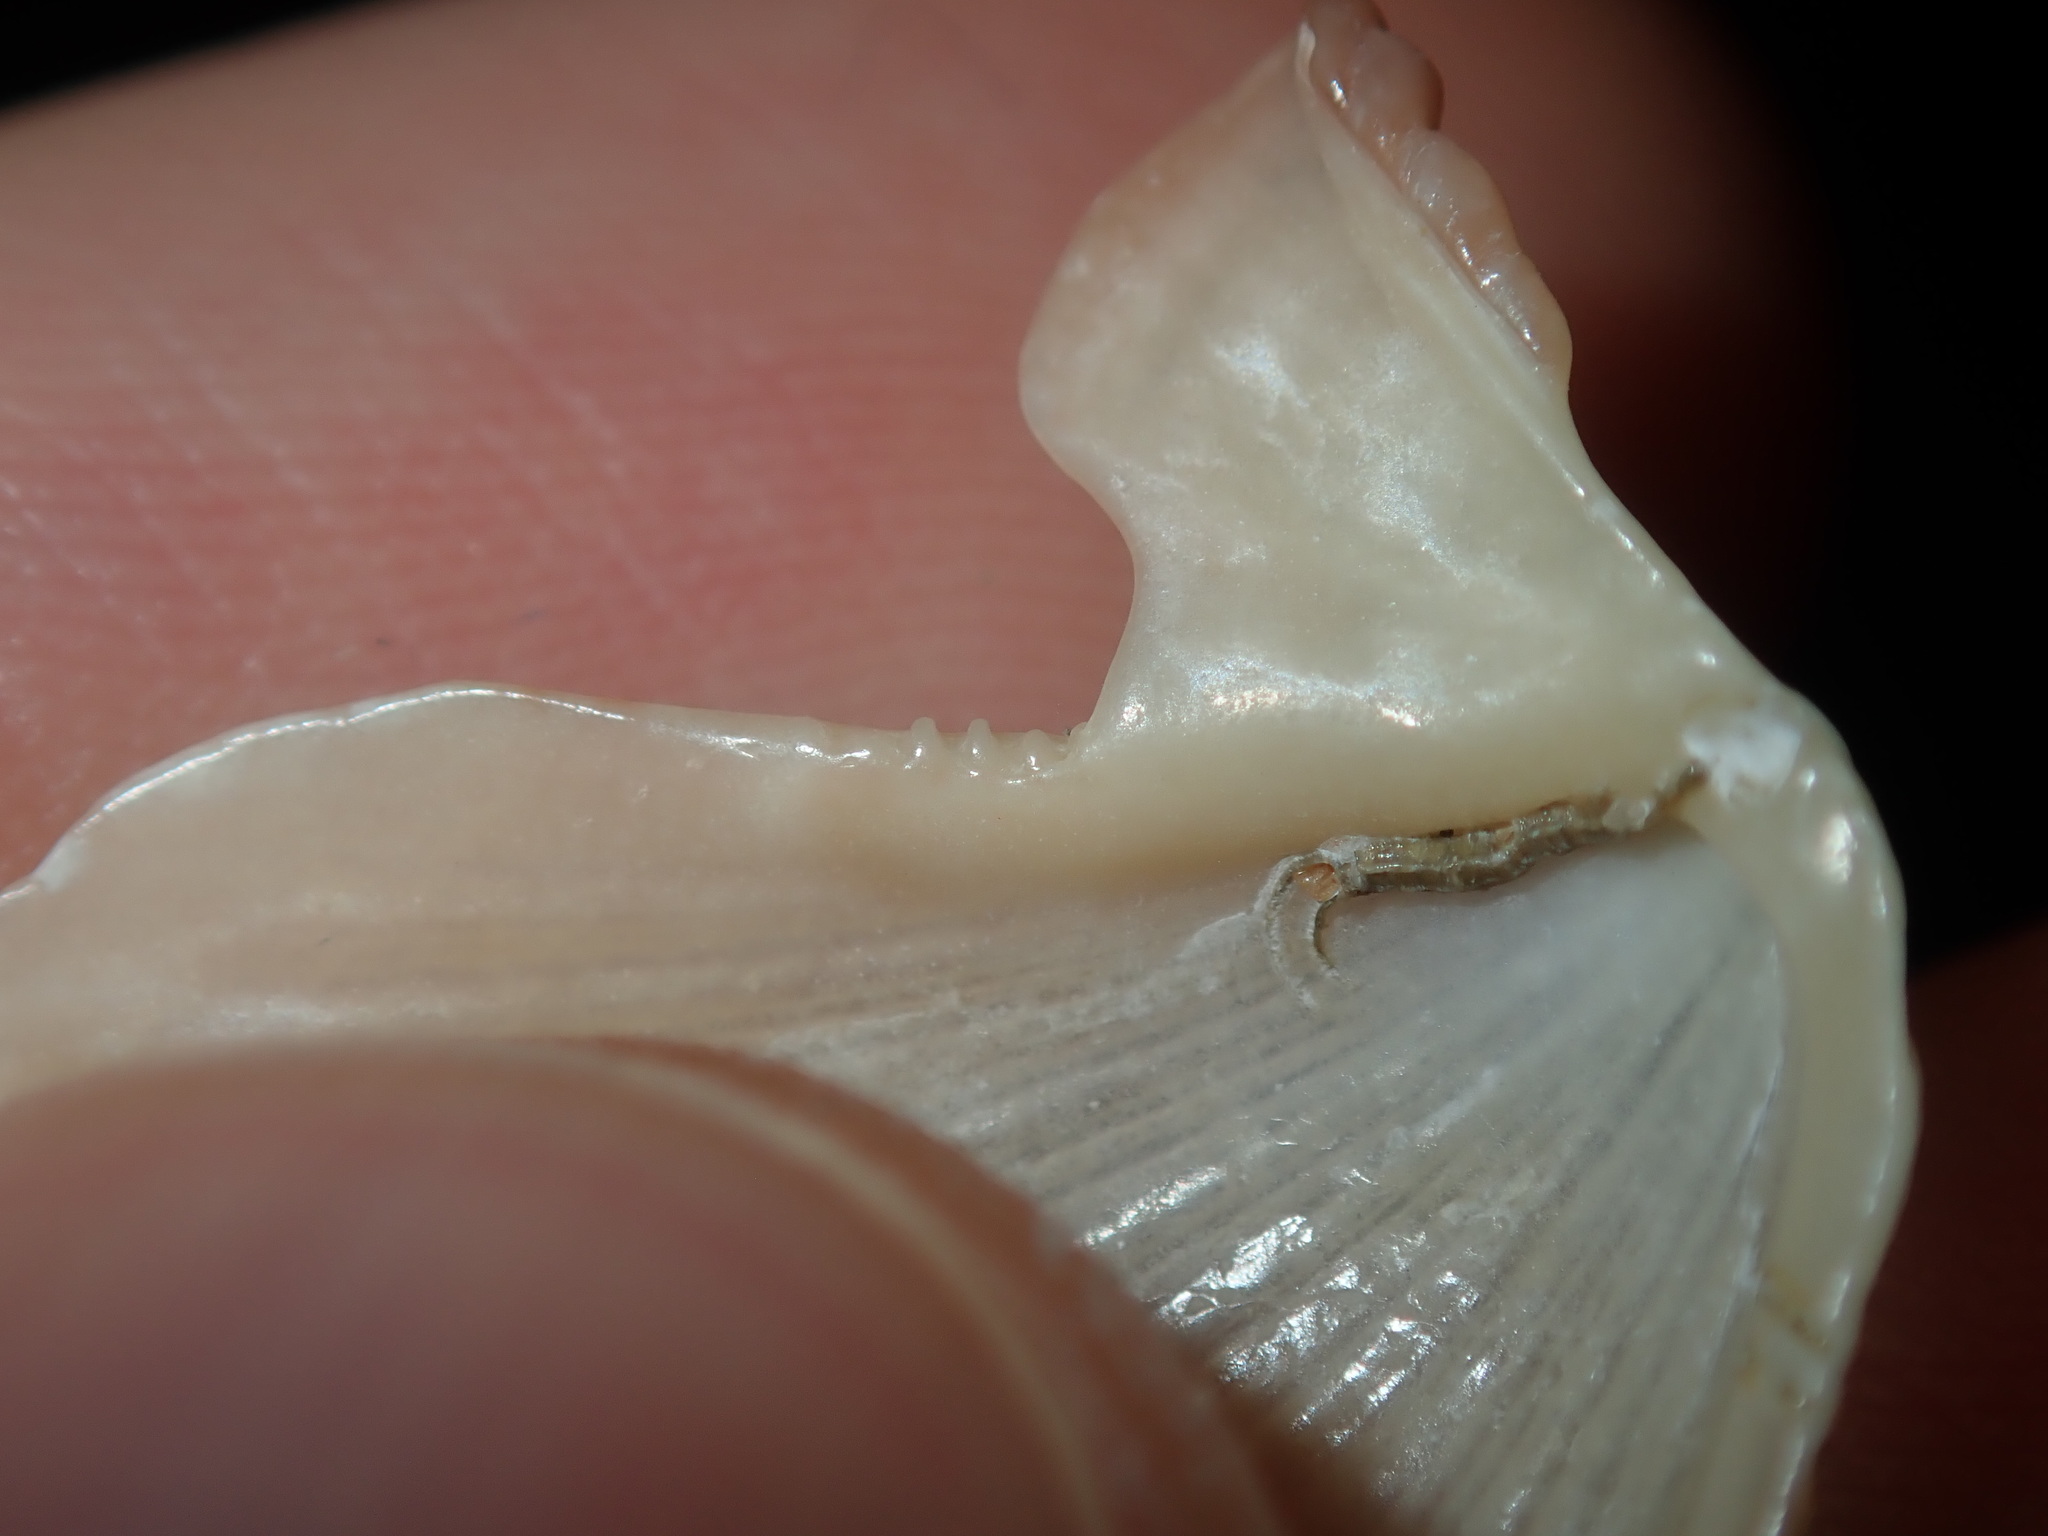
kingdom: Animalia
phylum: Mollusca
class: Bivalvia
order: Pectinida
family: Pectinidae
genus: Scaeochlamys
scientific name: Scaeochlamys livida
